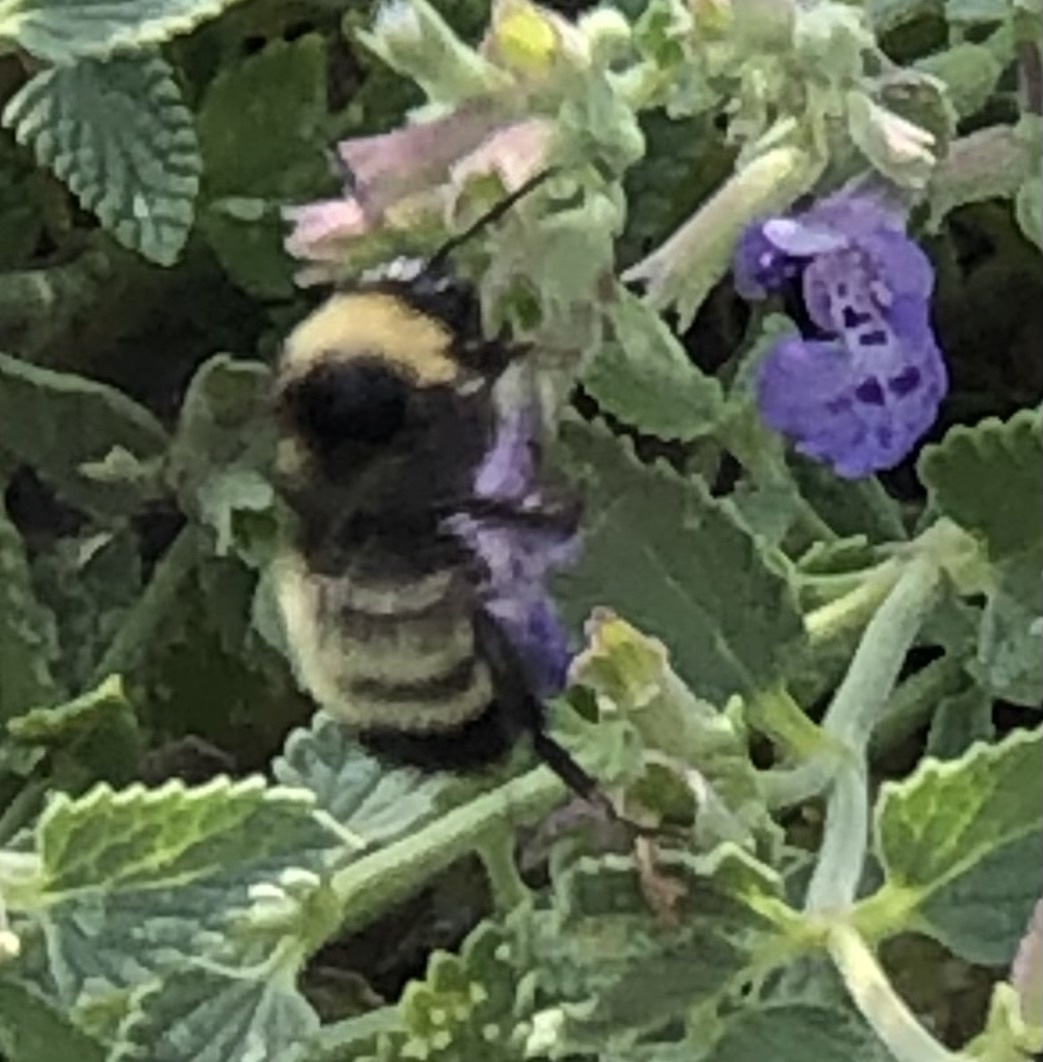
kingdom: Animalia
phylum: Arthropoda
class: Insecta
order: Hymenoptera
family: Apidae
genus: Bombus
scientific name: Bombus pensylvanicus
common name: Bumble bee
